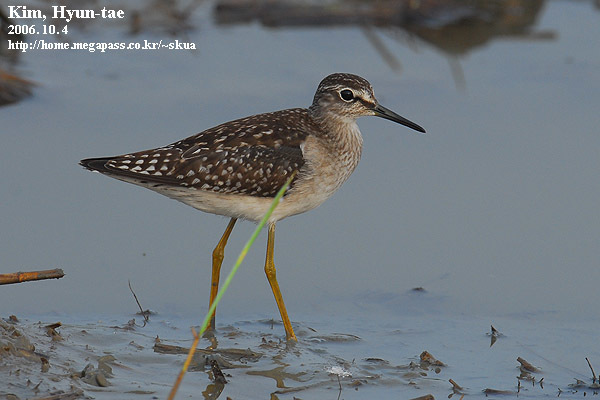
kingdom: Animalia
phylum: Chordata
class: Aves
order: Charadriiformes
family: Scolopacidae
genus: Tringa
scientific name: Tringa glareola
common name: Wood sandpiper
